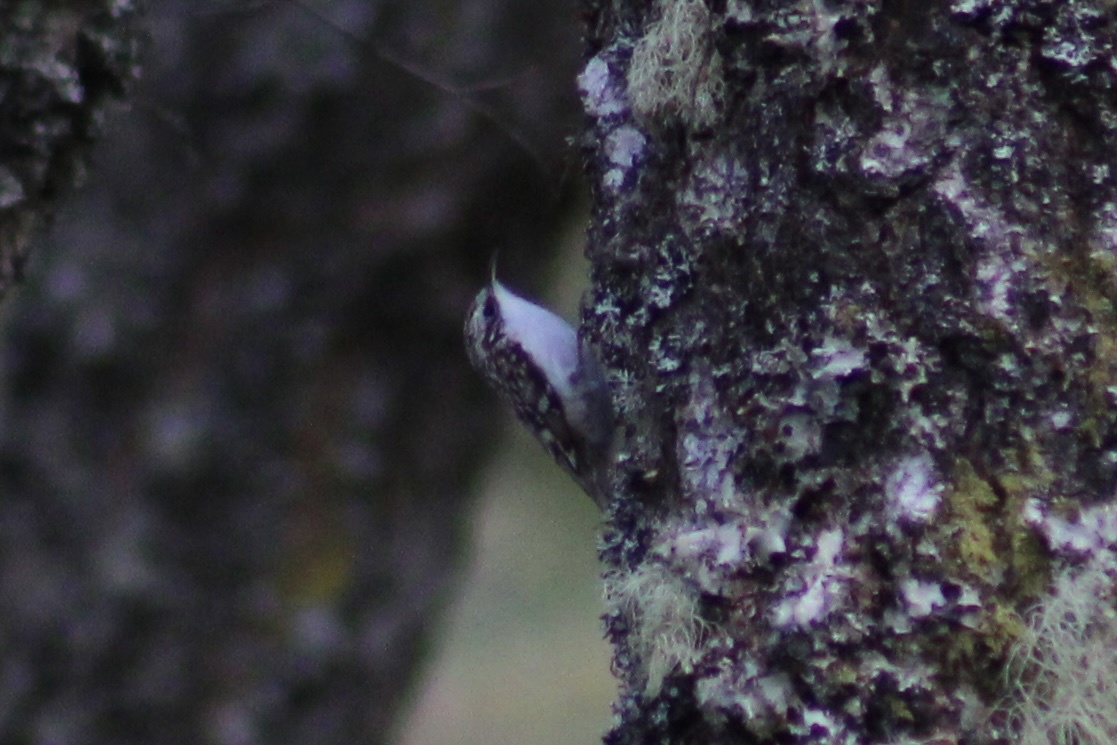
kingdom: Animalia
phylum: Chordata
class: Aves
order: Passeriformes
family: Certhiidae
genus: Certhia
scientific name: Certhia familiaris
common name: Eurasian treecreeper
